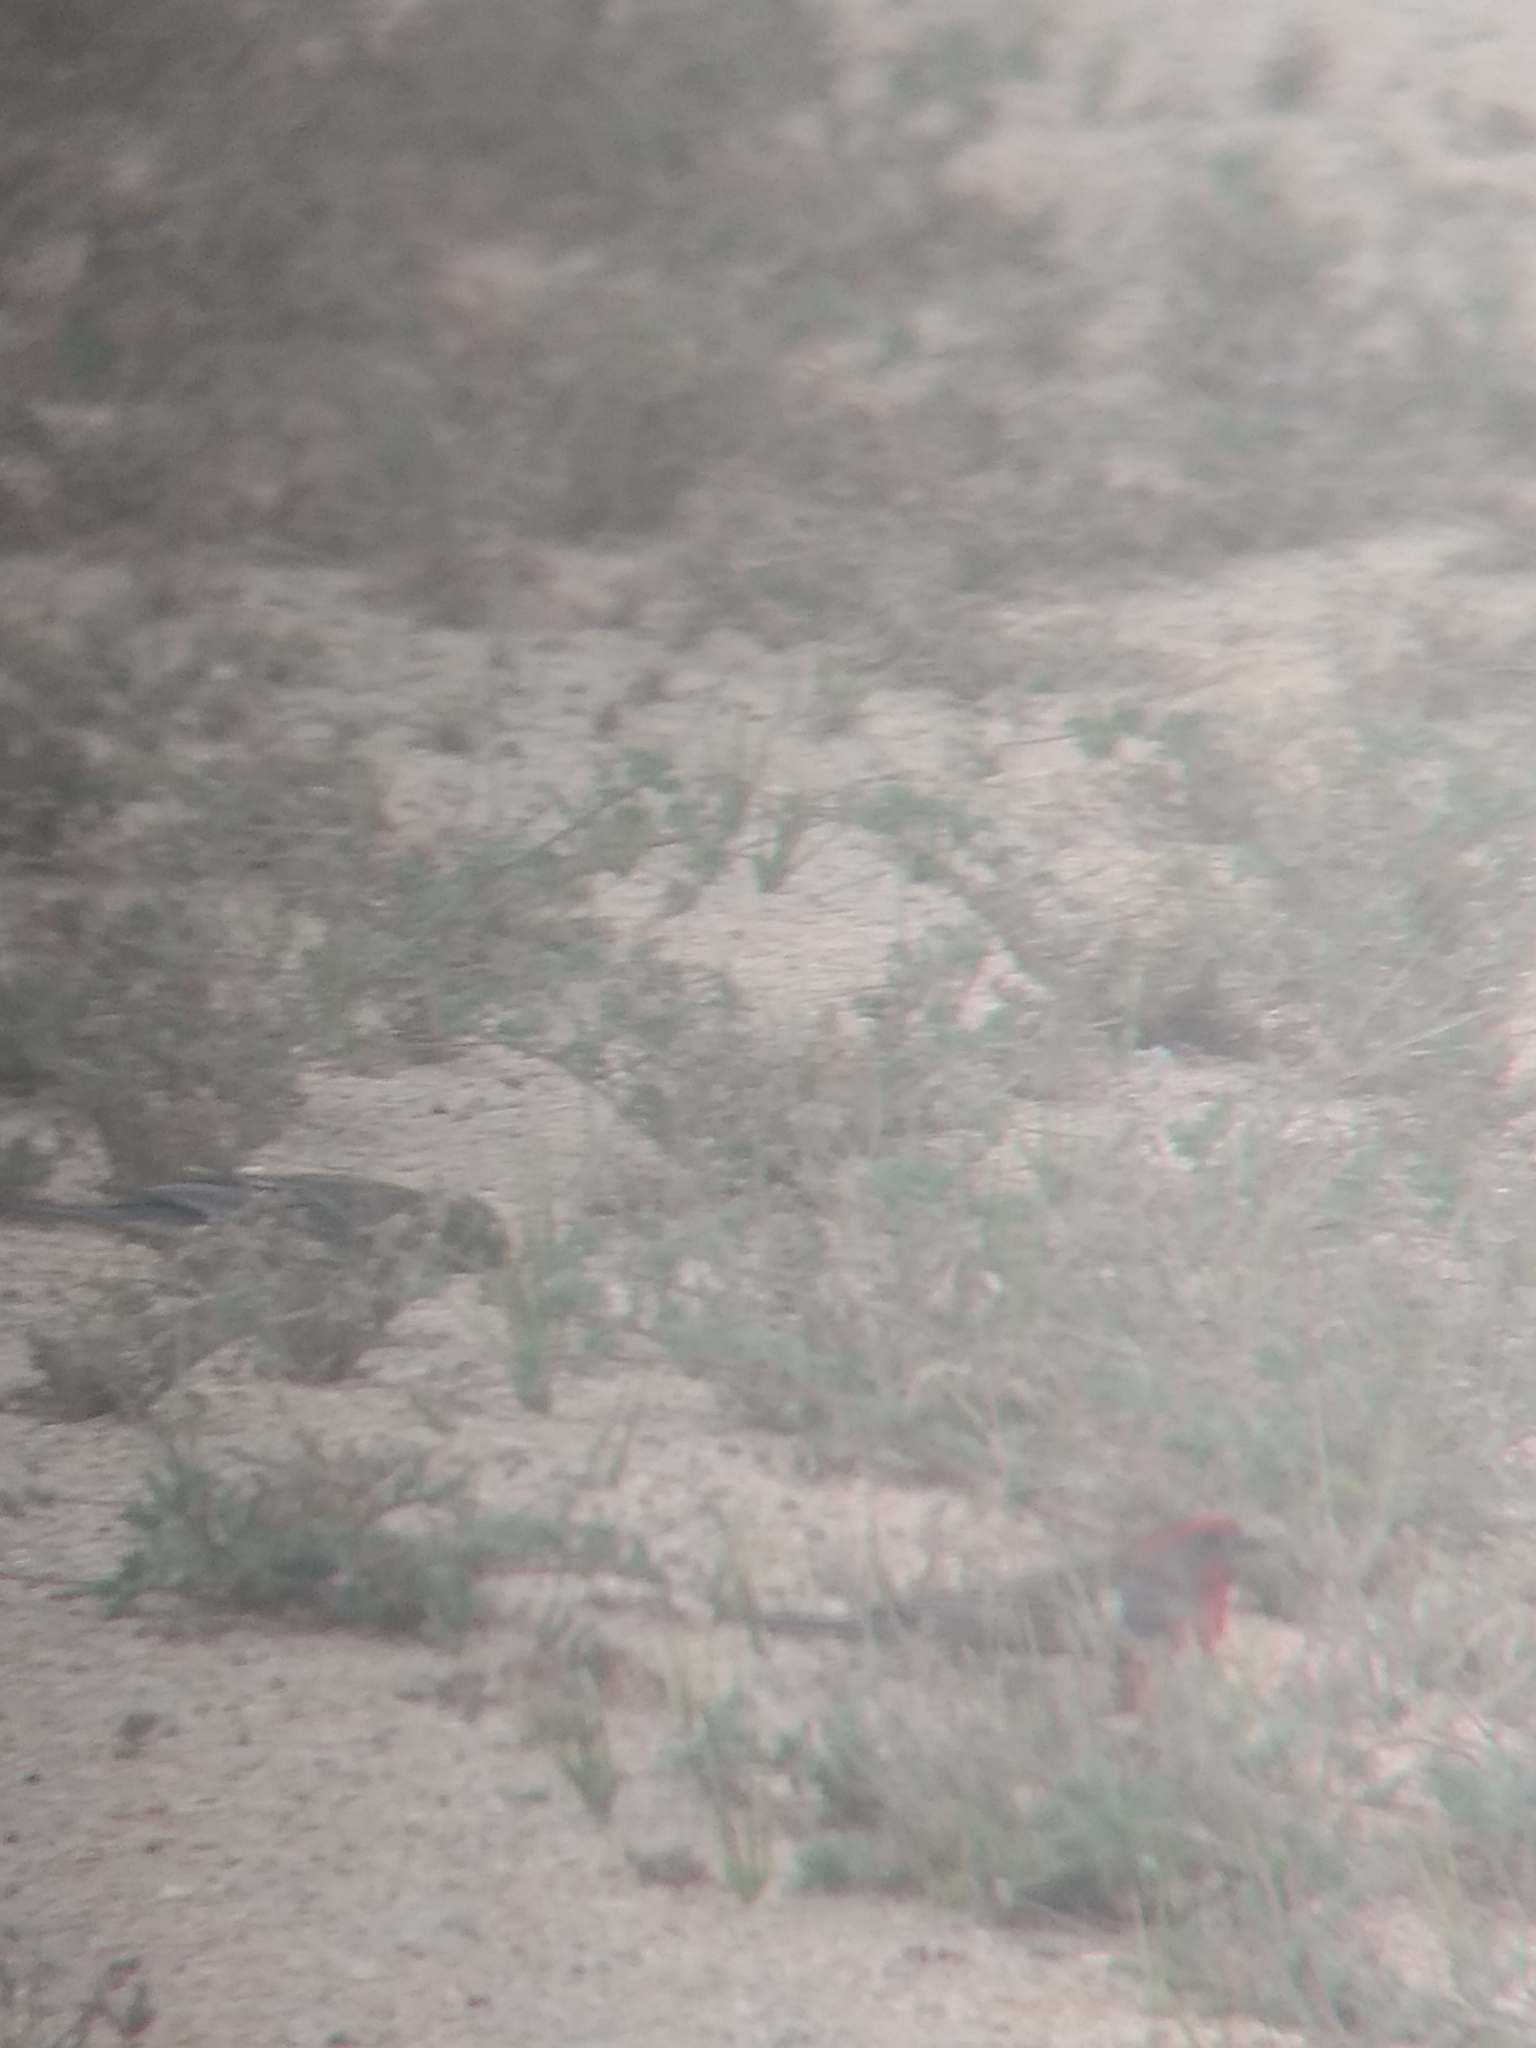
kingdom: Animalia
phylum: Chordata
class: Aves
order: Passeriformes
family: Fringillidae
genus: Haemorhous
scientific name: Haemorhous mexicanus
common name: House finch
